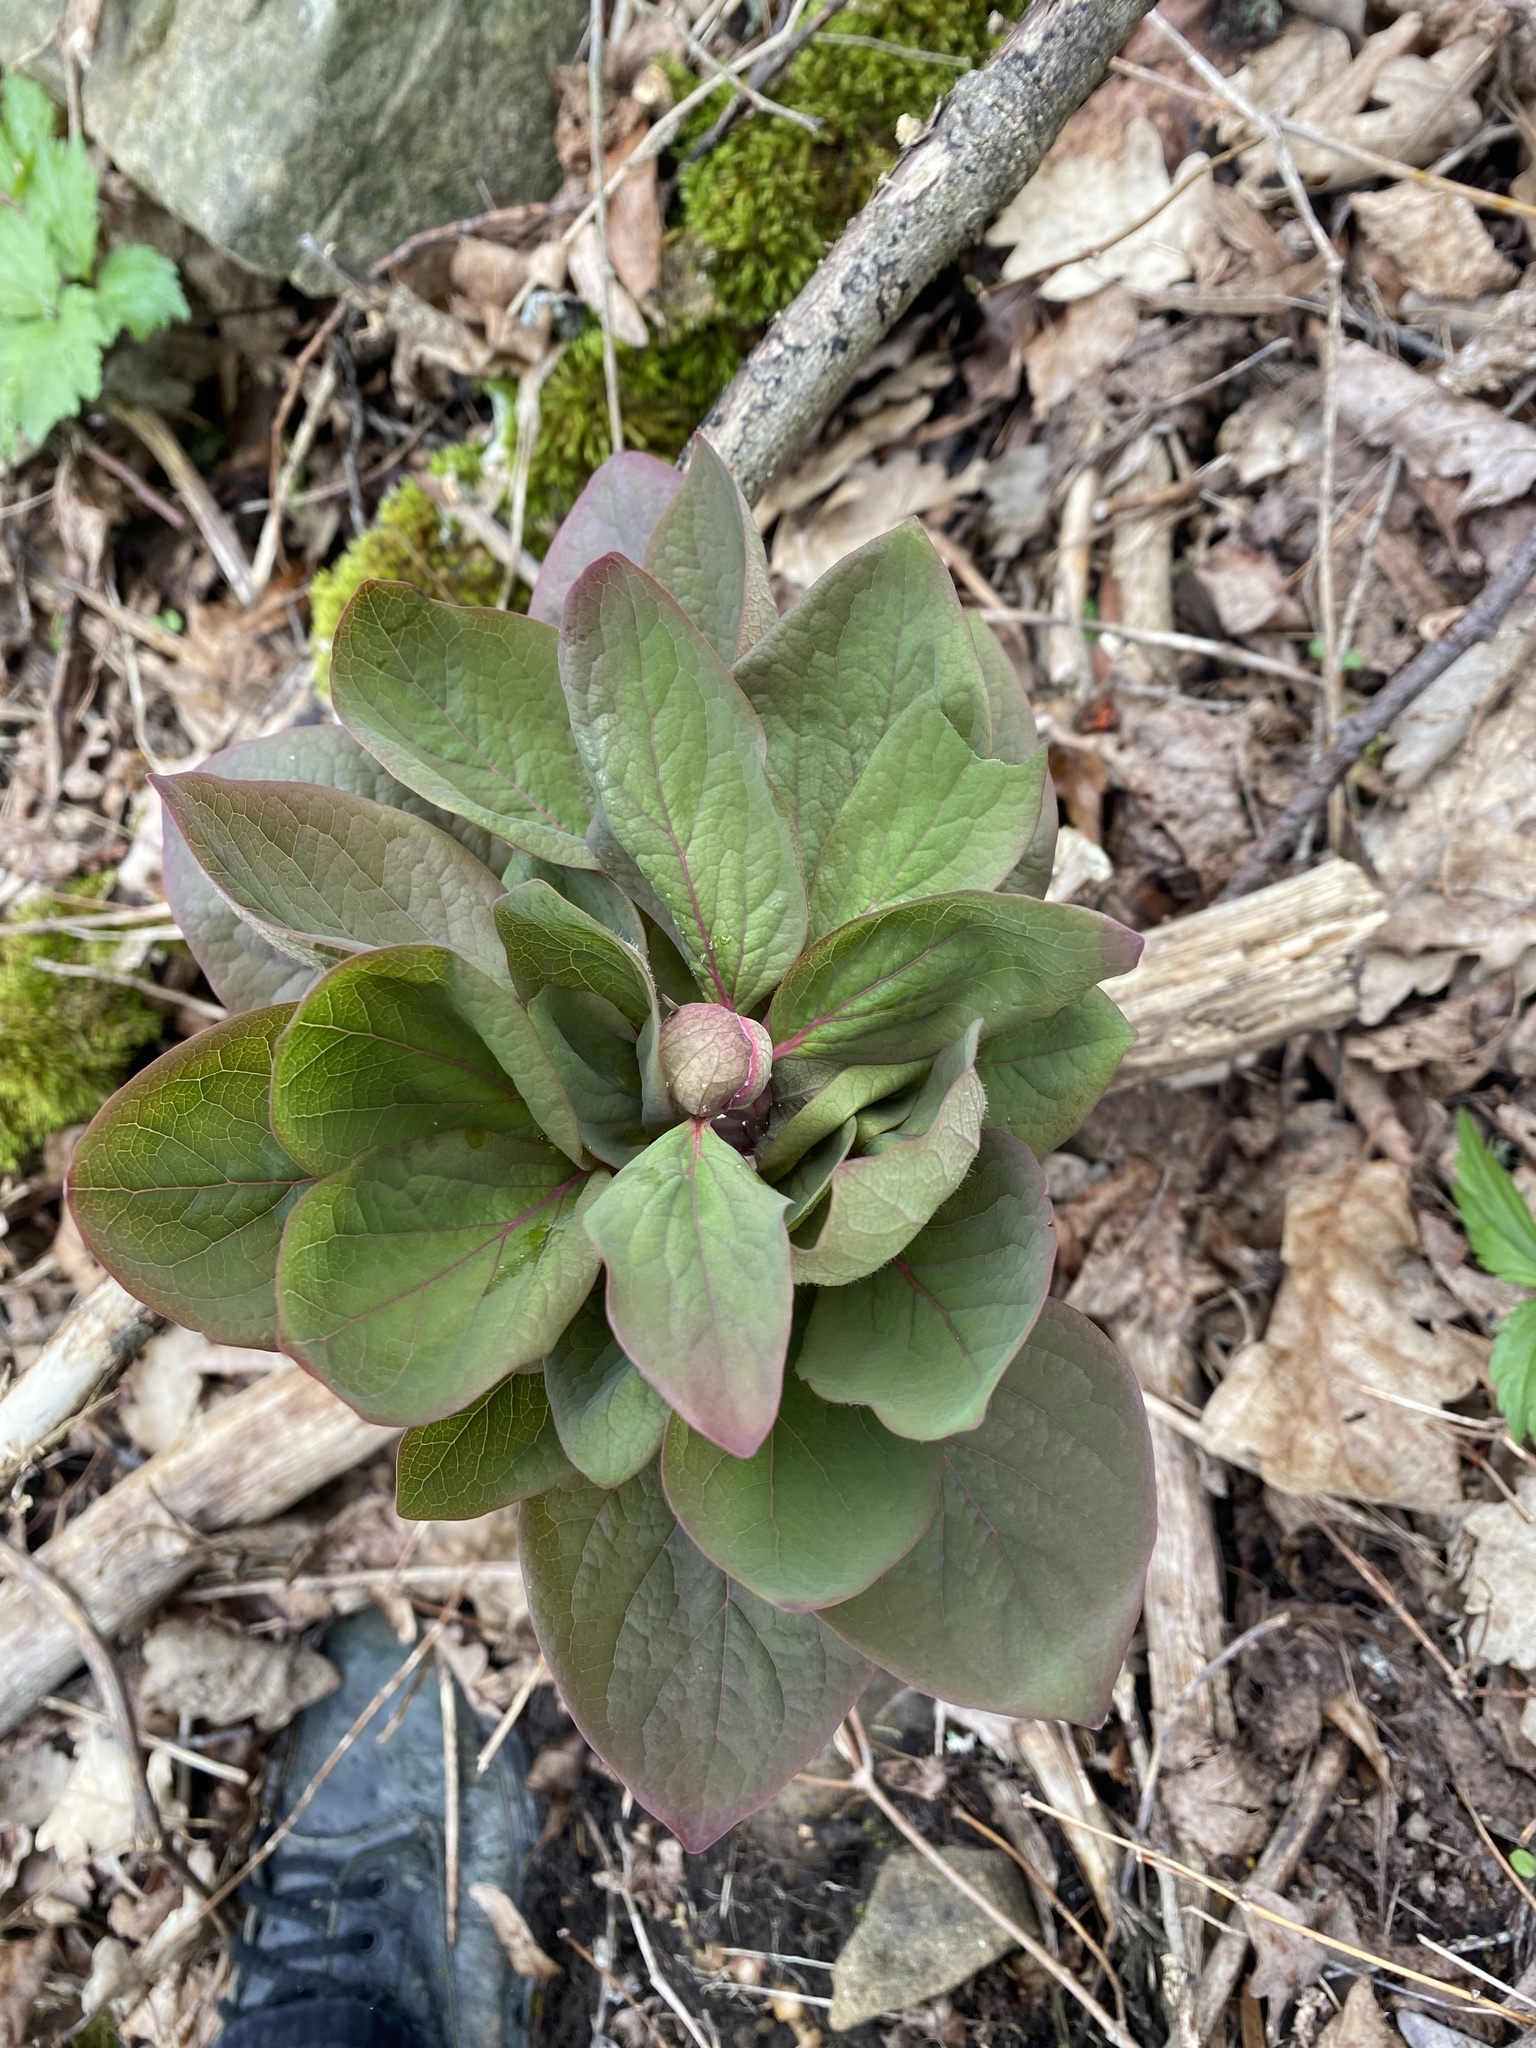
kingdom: Plantae
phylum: Tracheophyta
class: Magnoliopsida
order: Saxifragales
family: Paeoniaceae
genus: Paeonia
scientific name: Paeonia caucasica
